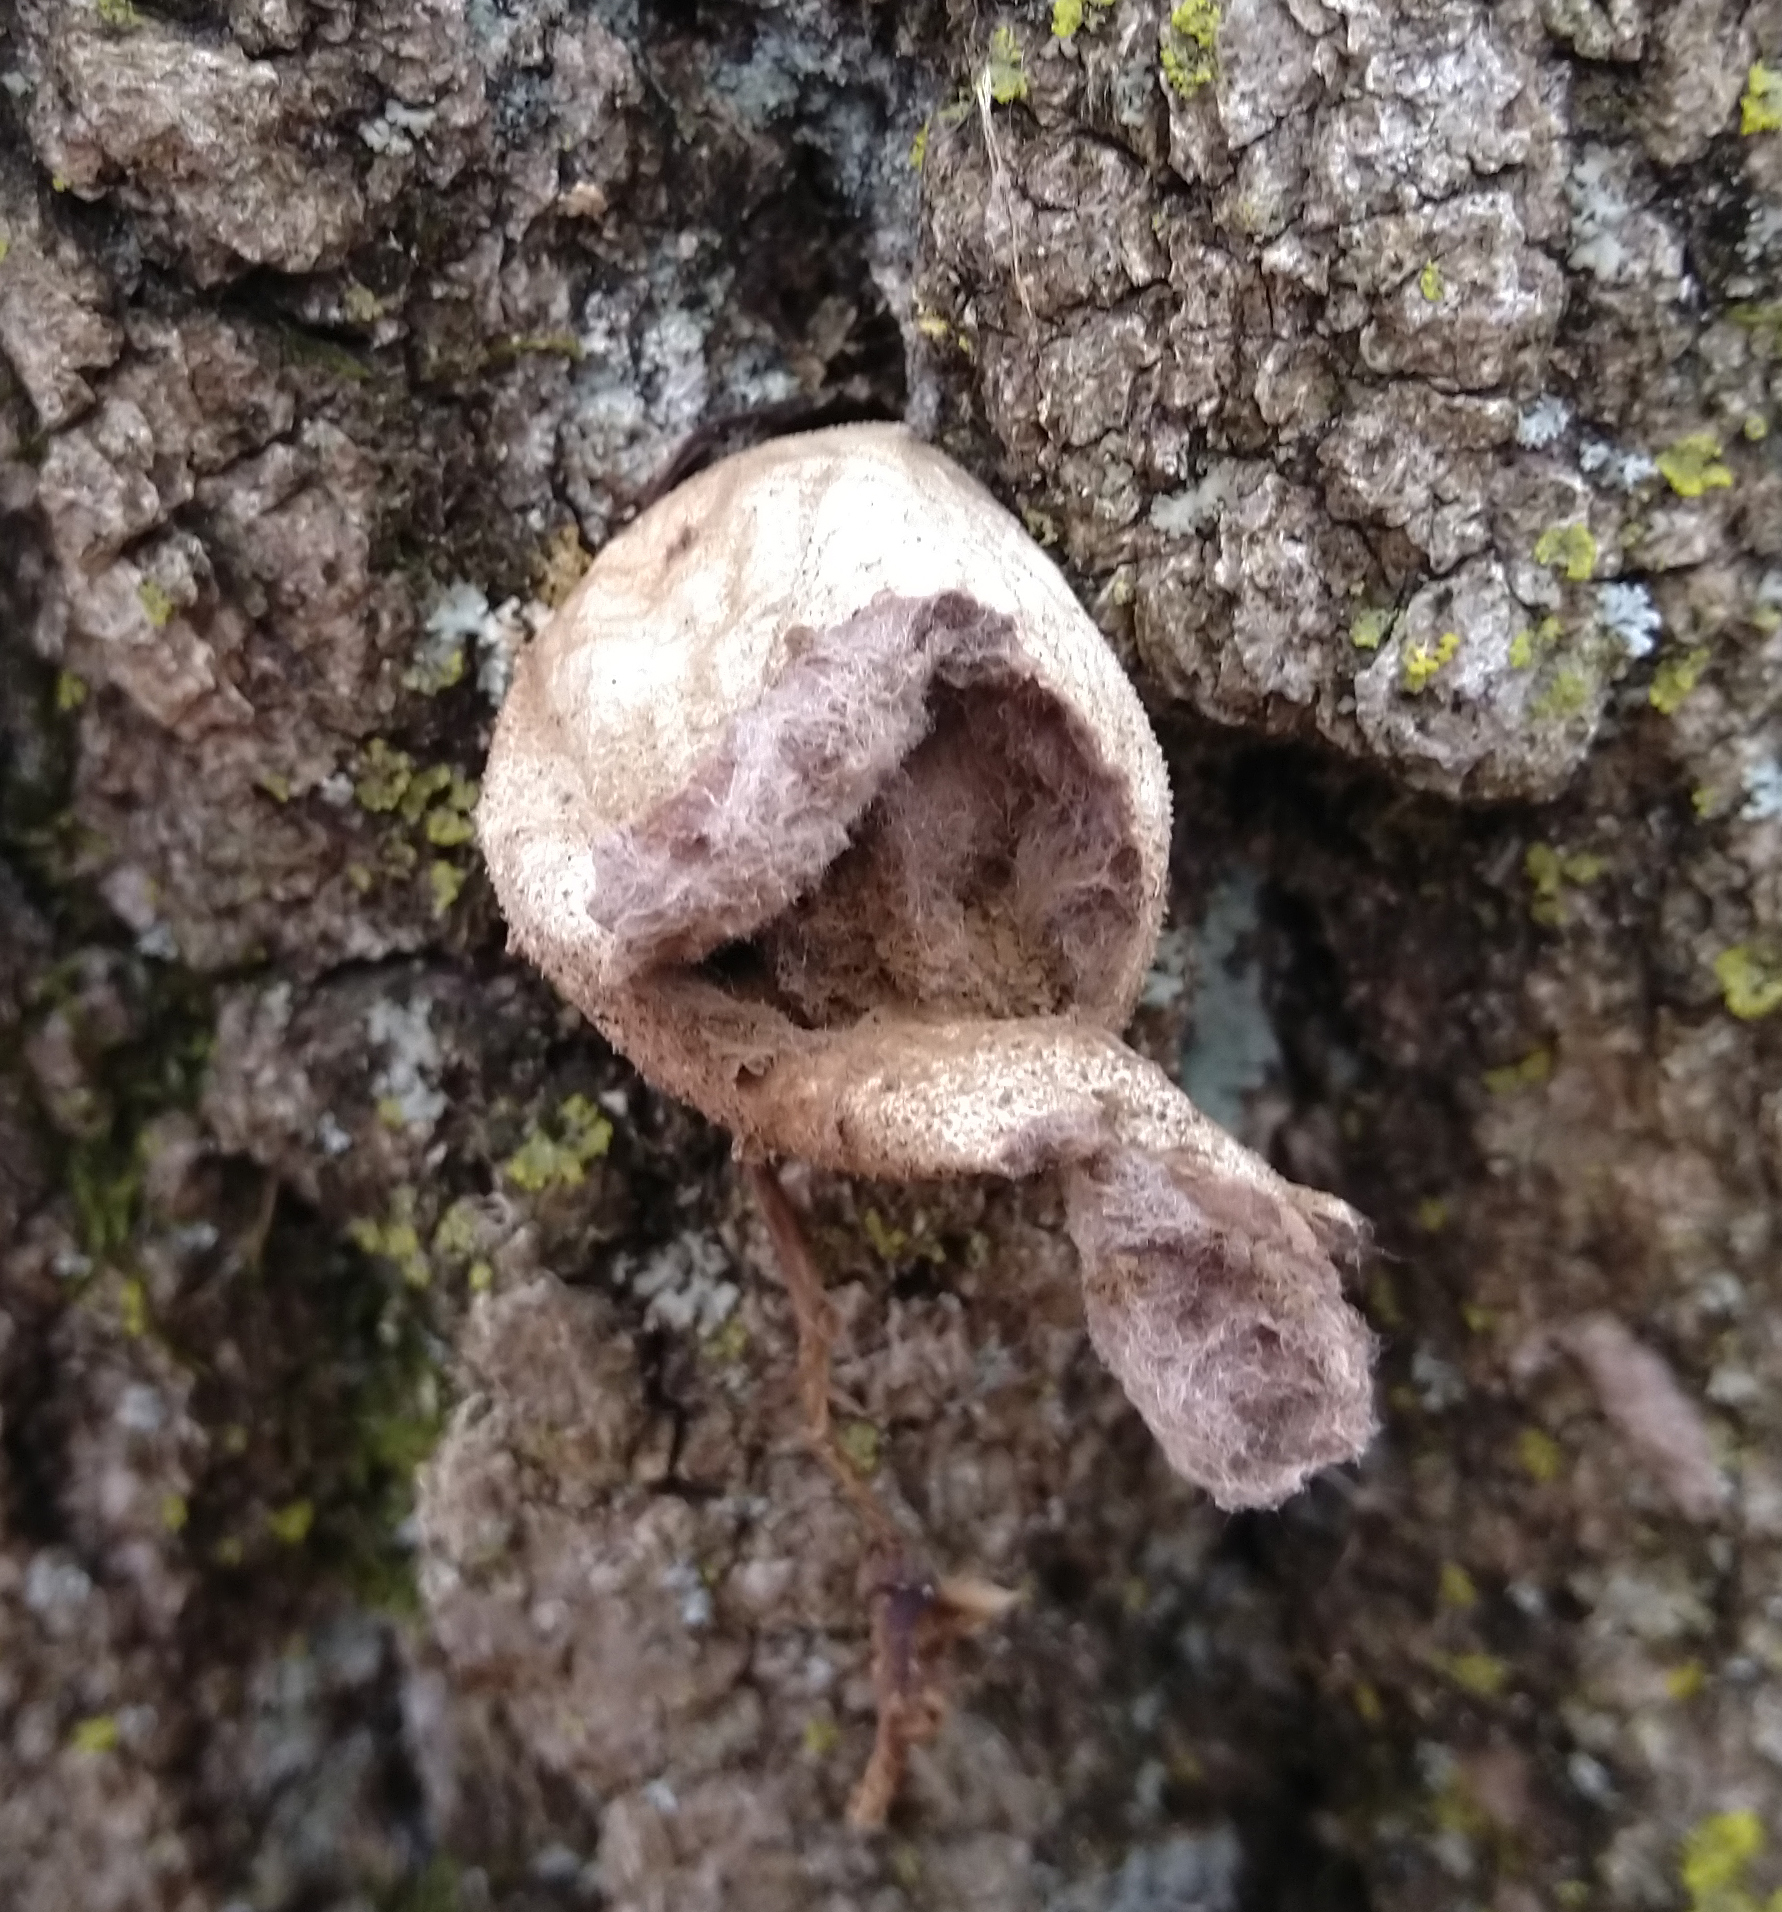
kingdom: Fungi
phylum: Basidiomycota
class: Agaricomycetes
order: Agaricales
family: Lycoperdaceae
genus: Apioperdon
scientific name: Apioperdon pyriforme
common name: Pear-shaped puffball
